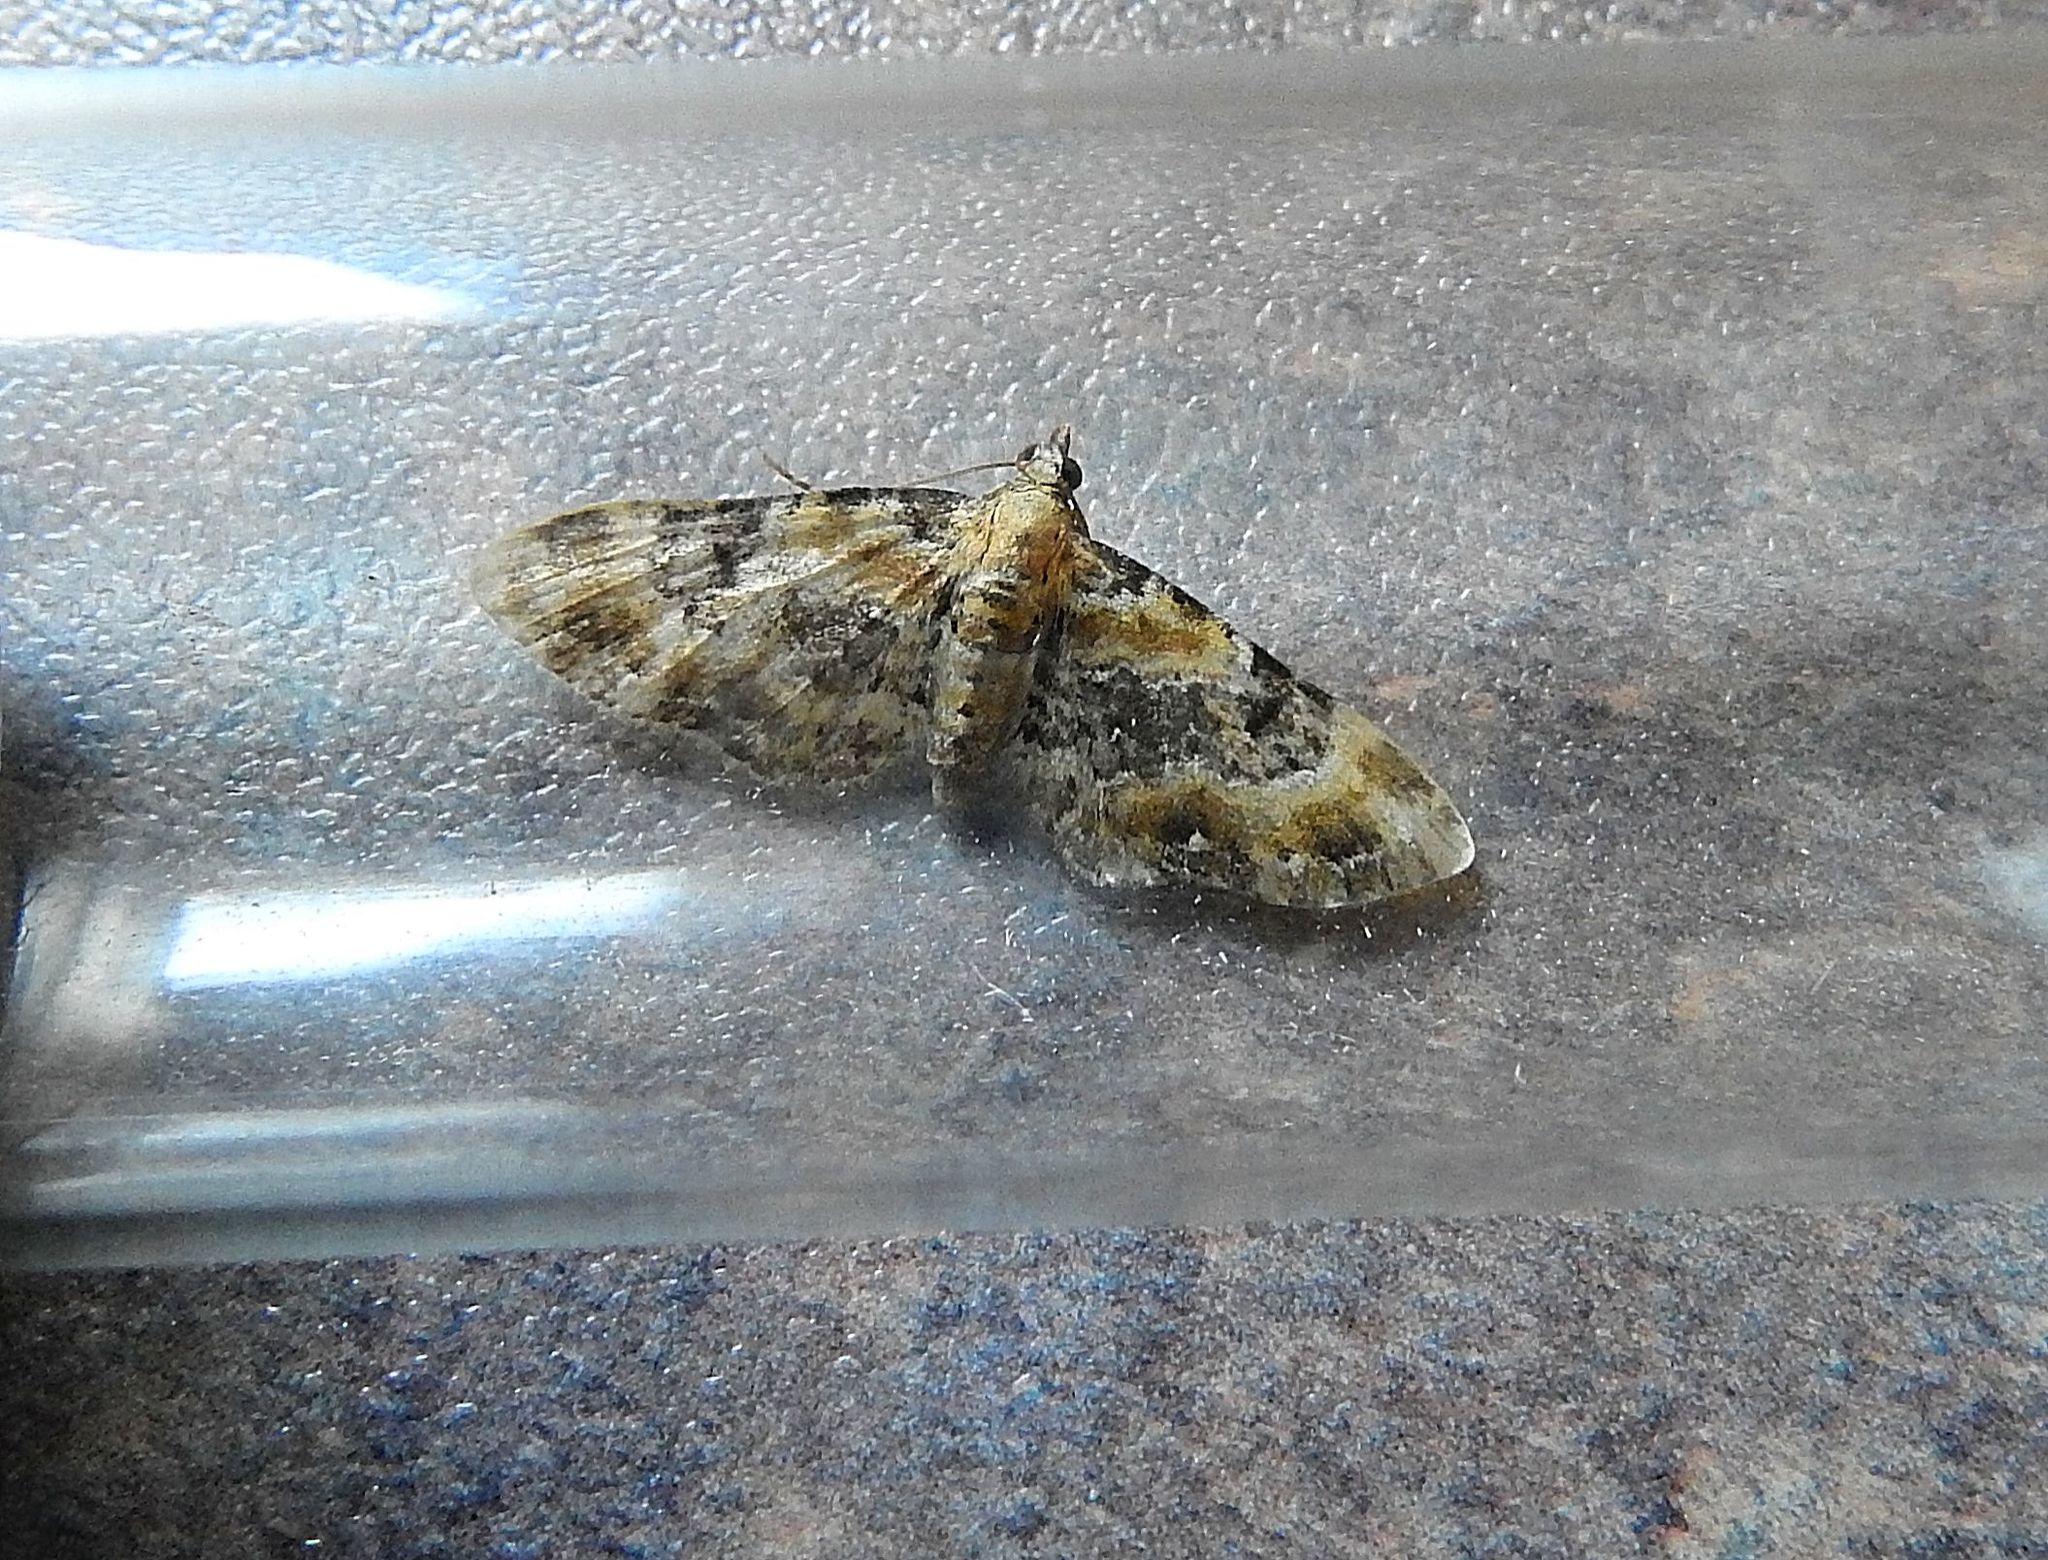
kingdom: Animalia
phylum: Arthropoda
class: Insecta
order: Lepidoptera
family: Geometridae
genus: Eupithecia
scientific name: Eupithecia pulchellata
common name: Foxglove pug
